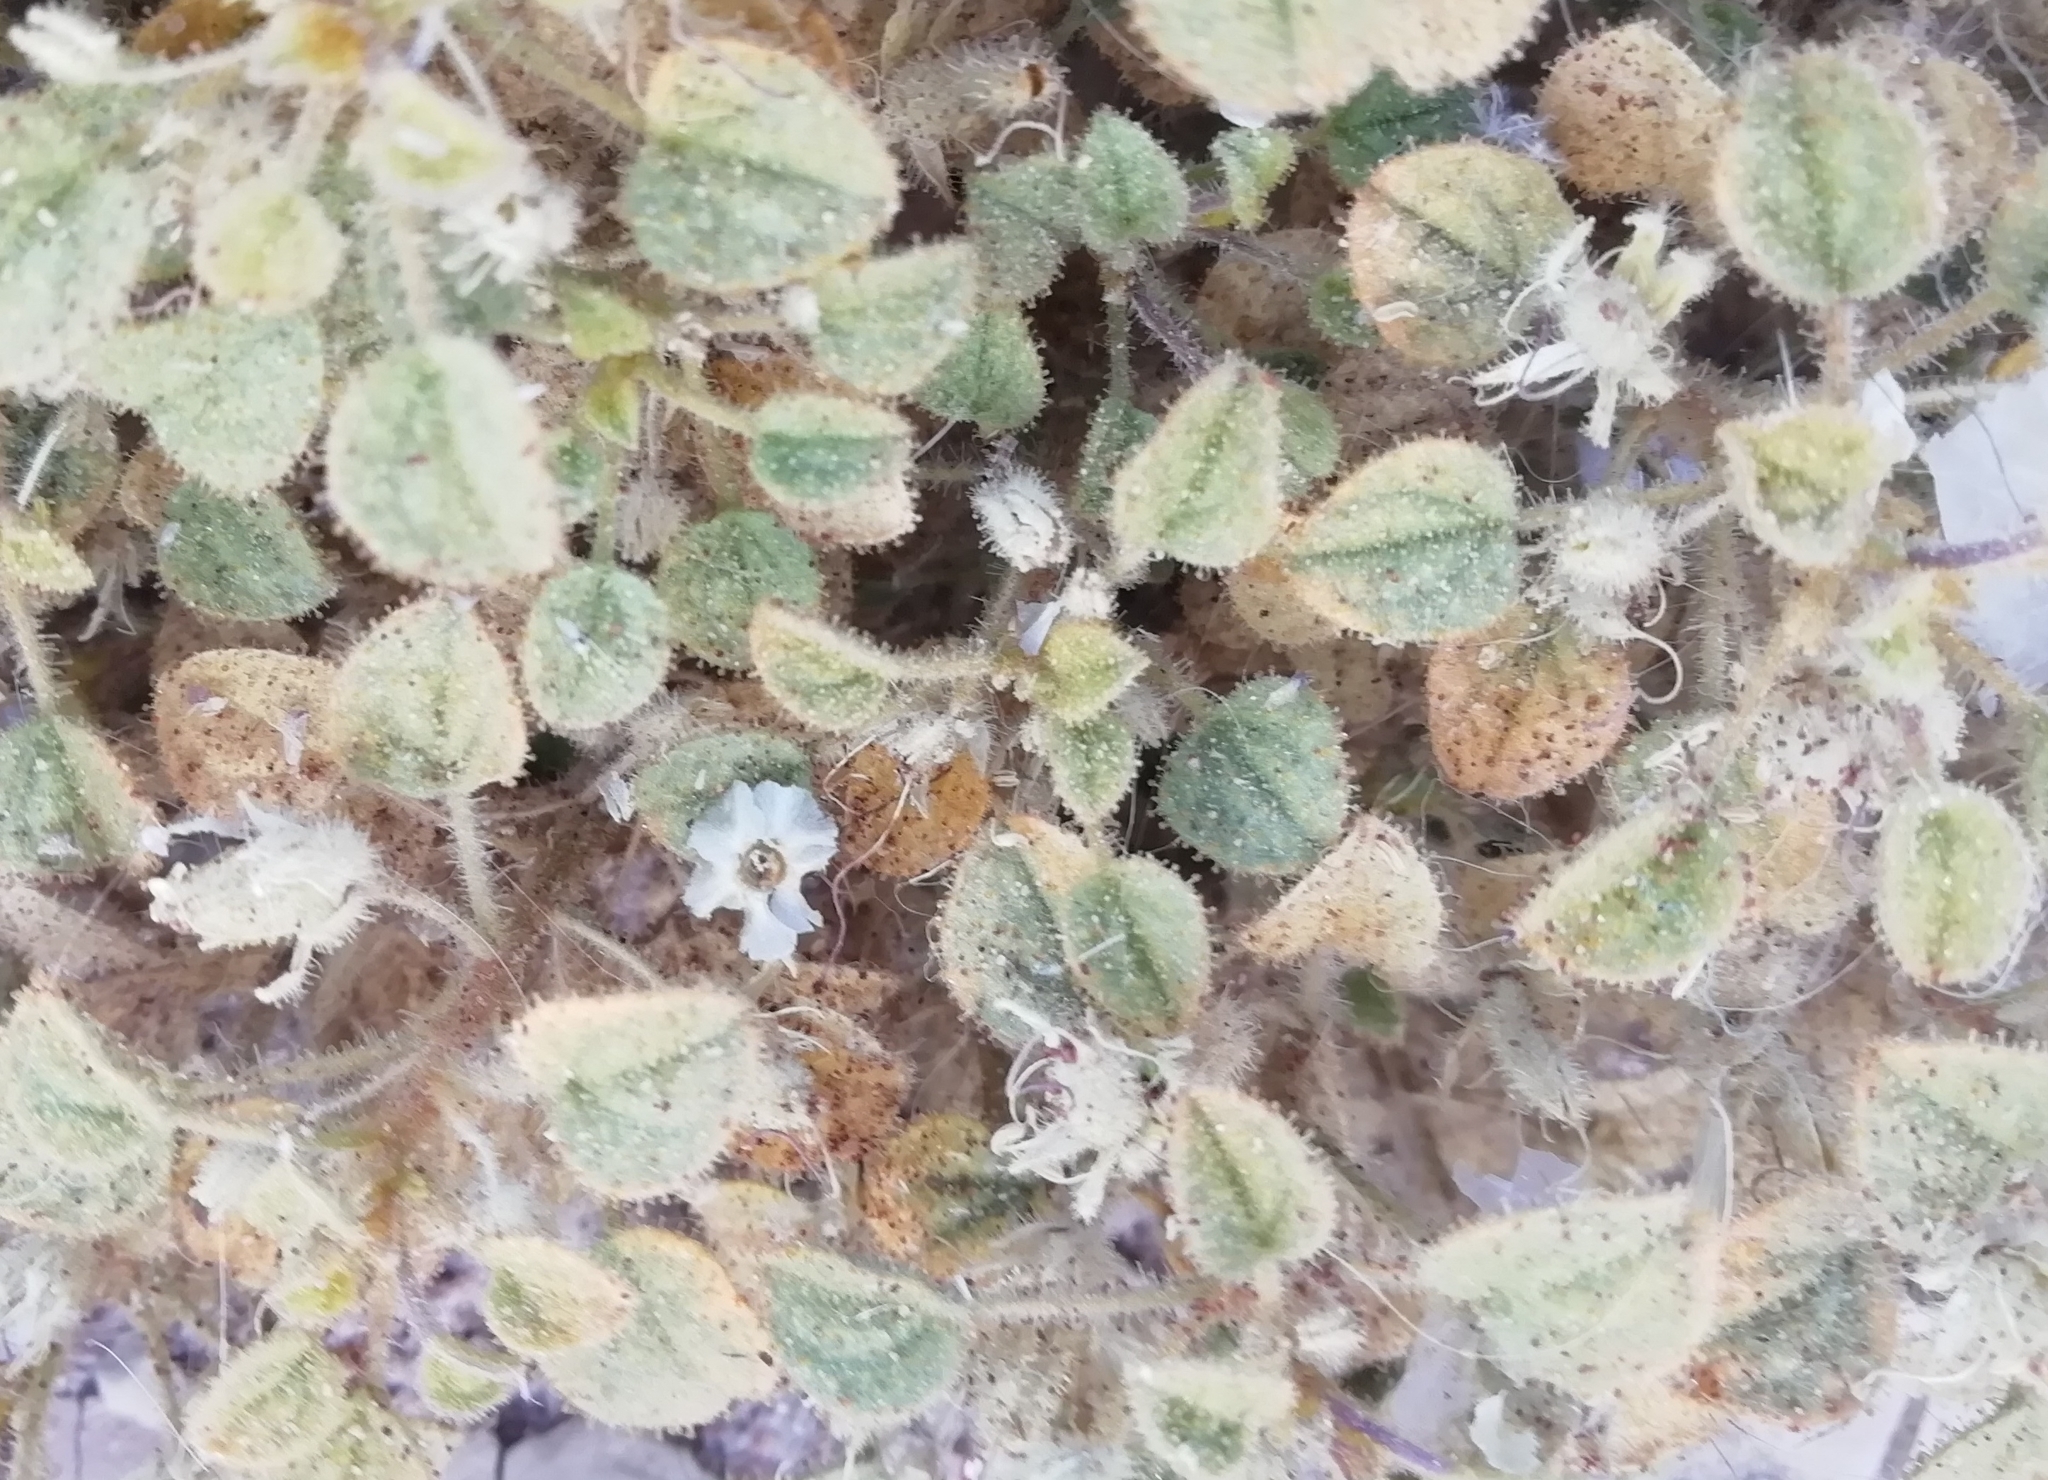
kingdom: Plantae
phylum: Tracheophyta
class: Magnoliopsida
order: Brassicales
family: Cleomaceae
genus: Rorida
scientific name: Rorida droserifolia
